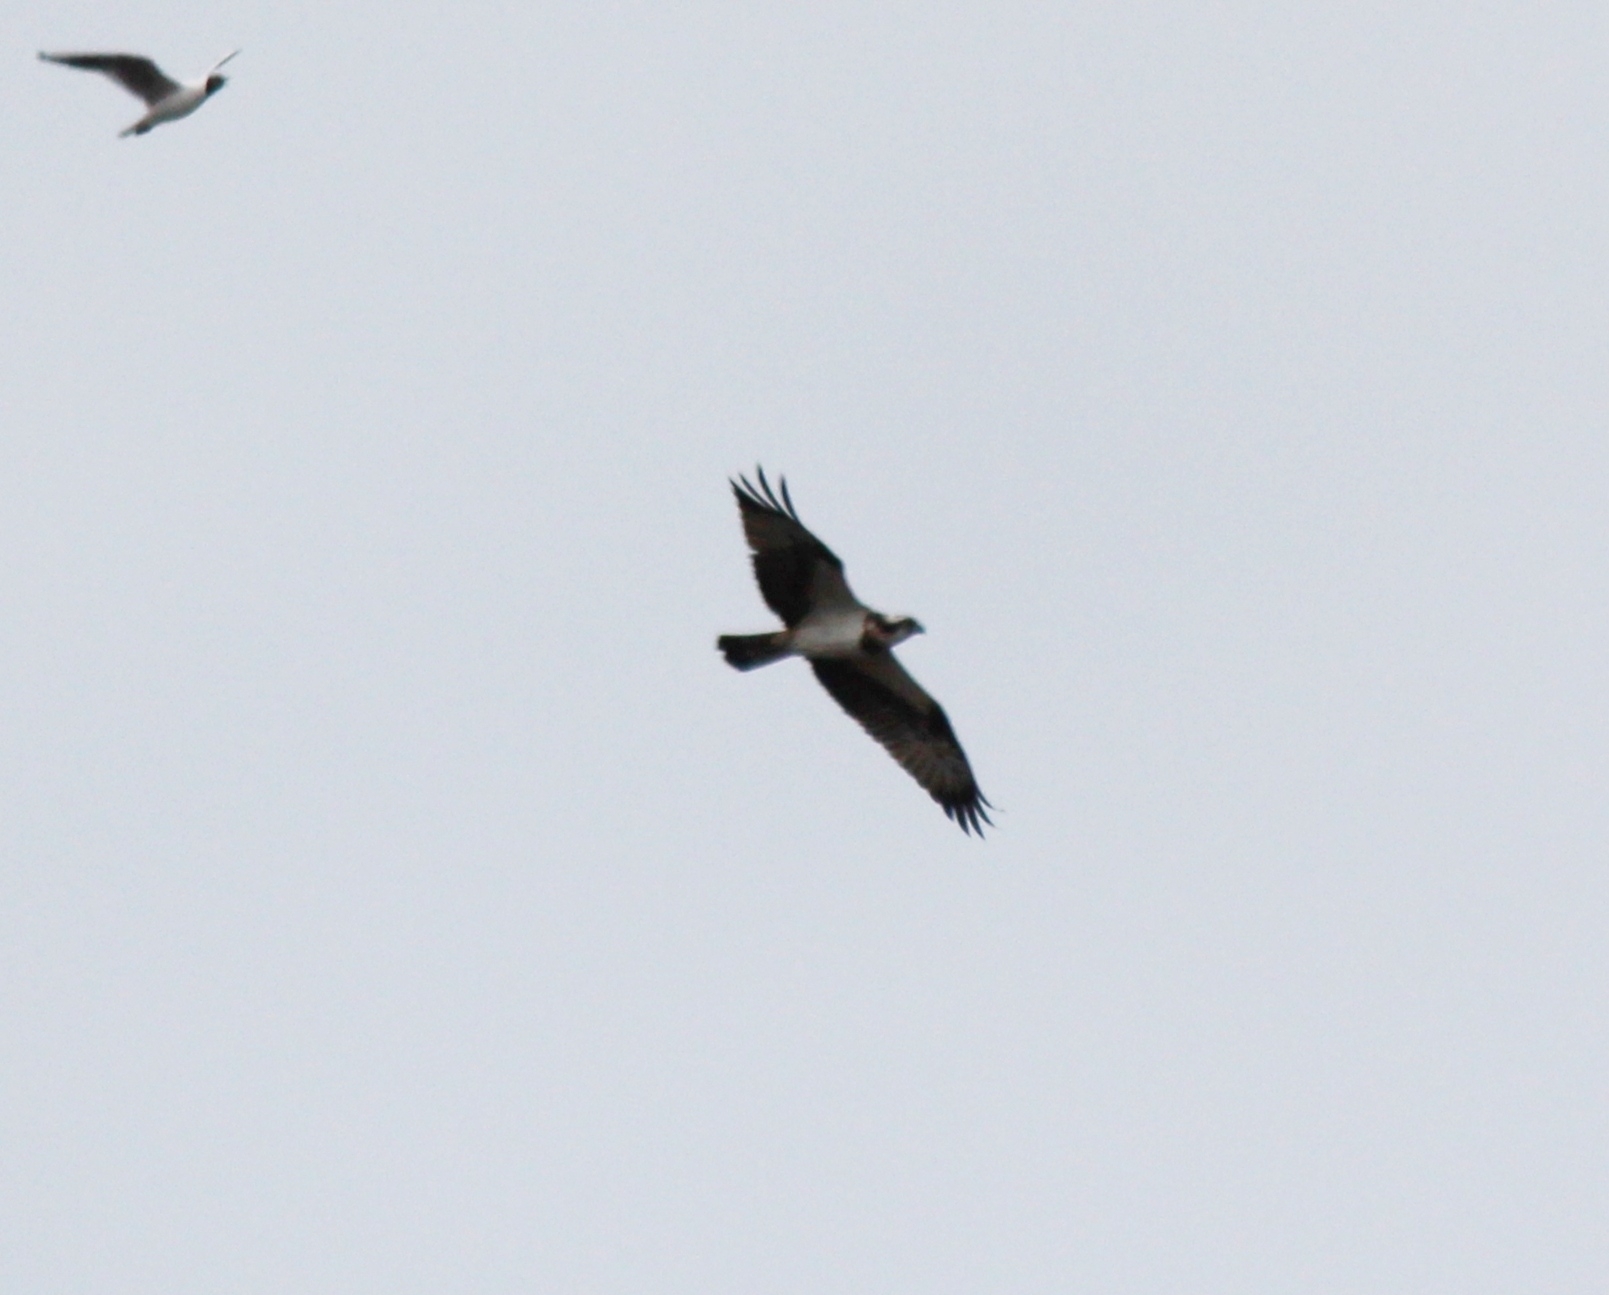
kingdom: Animalia
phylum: Chordata
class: Aves
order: Accipitriformes
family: Pandionidae
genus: Pandion
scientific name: Pandion haliaetus
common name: Osprey
